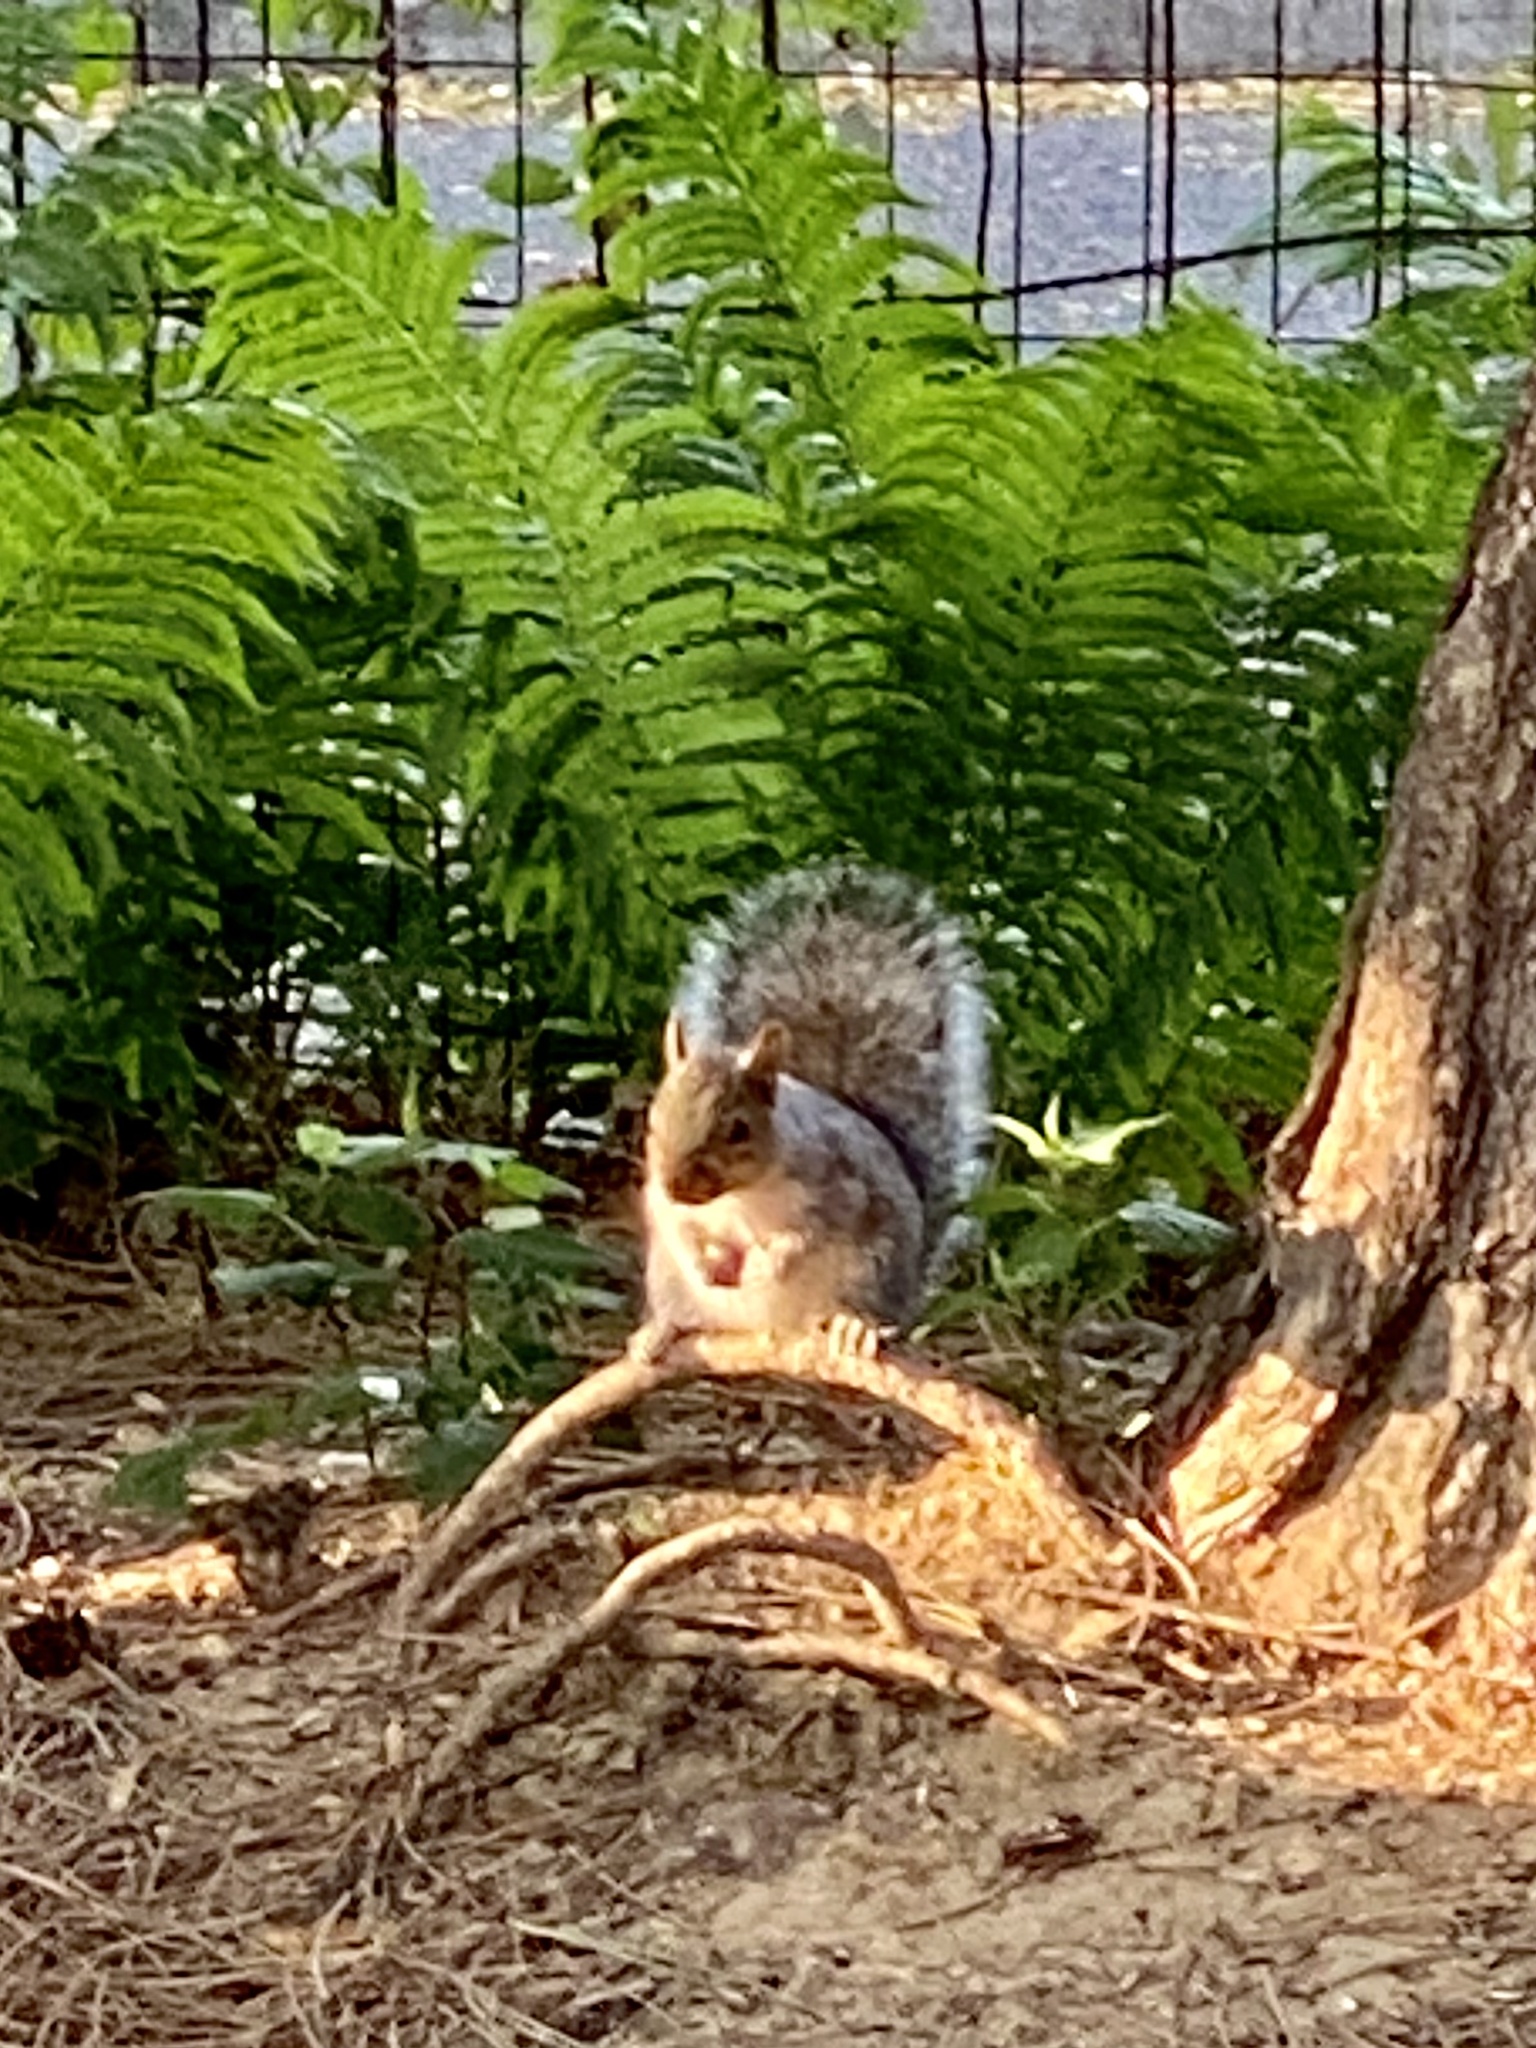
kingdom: Animalia
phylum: Chordata
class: Mammalia
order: Rodentia
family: Sciuridae
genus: Sciurus
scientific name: Sciurus carolinensis
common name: Eastern gray squirrel
